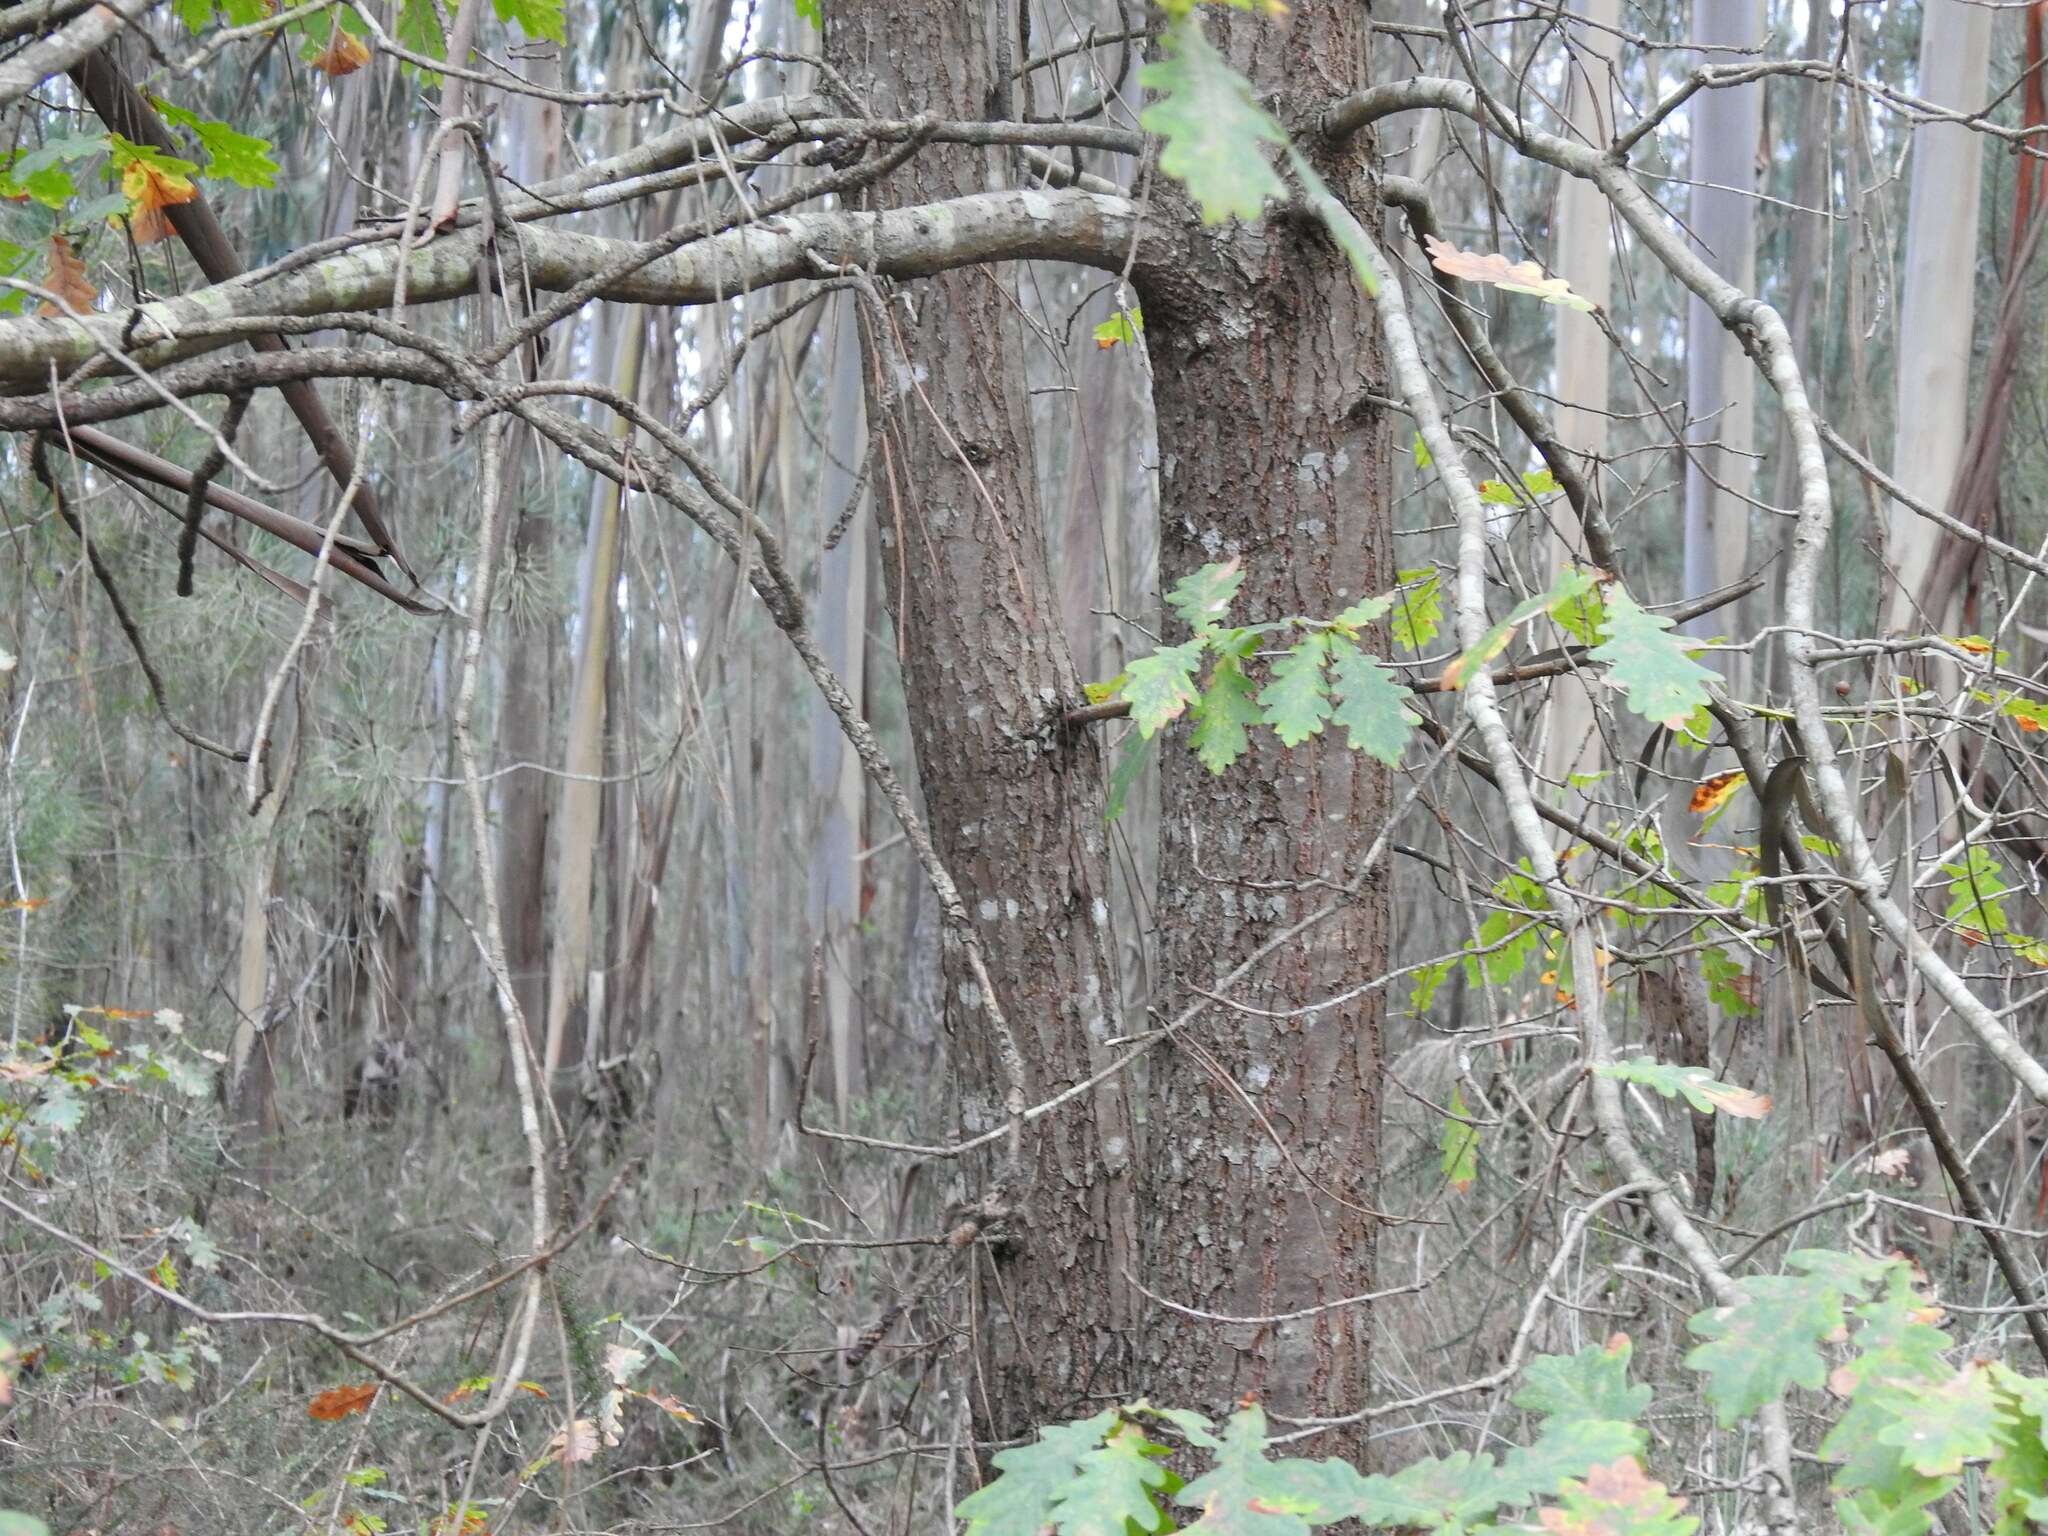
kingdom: Plantae
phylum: Tracheophyta
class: Magnoliopsida
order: Fagales
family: Fagaceae
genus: Quercus
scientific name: Quercus orocantabrica
